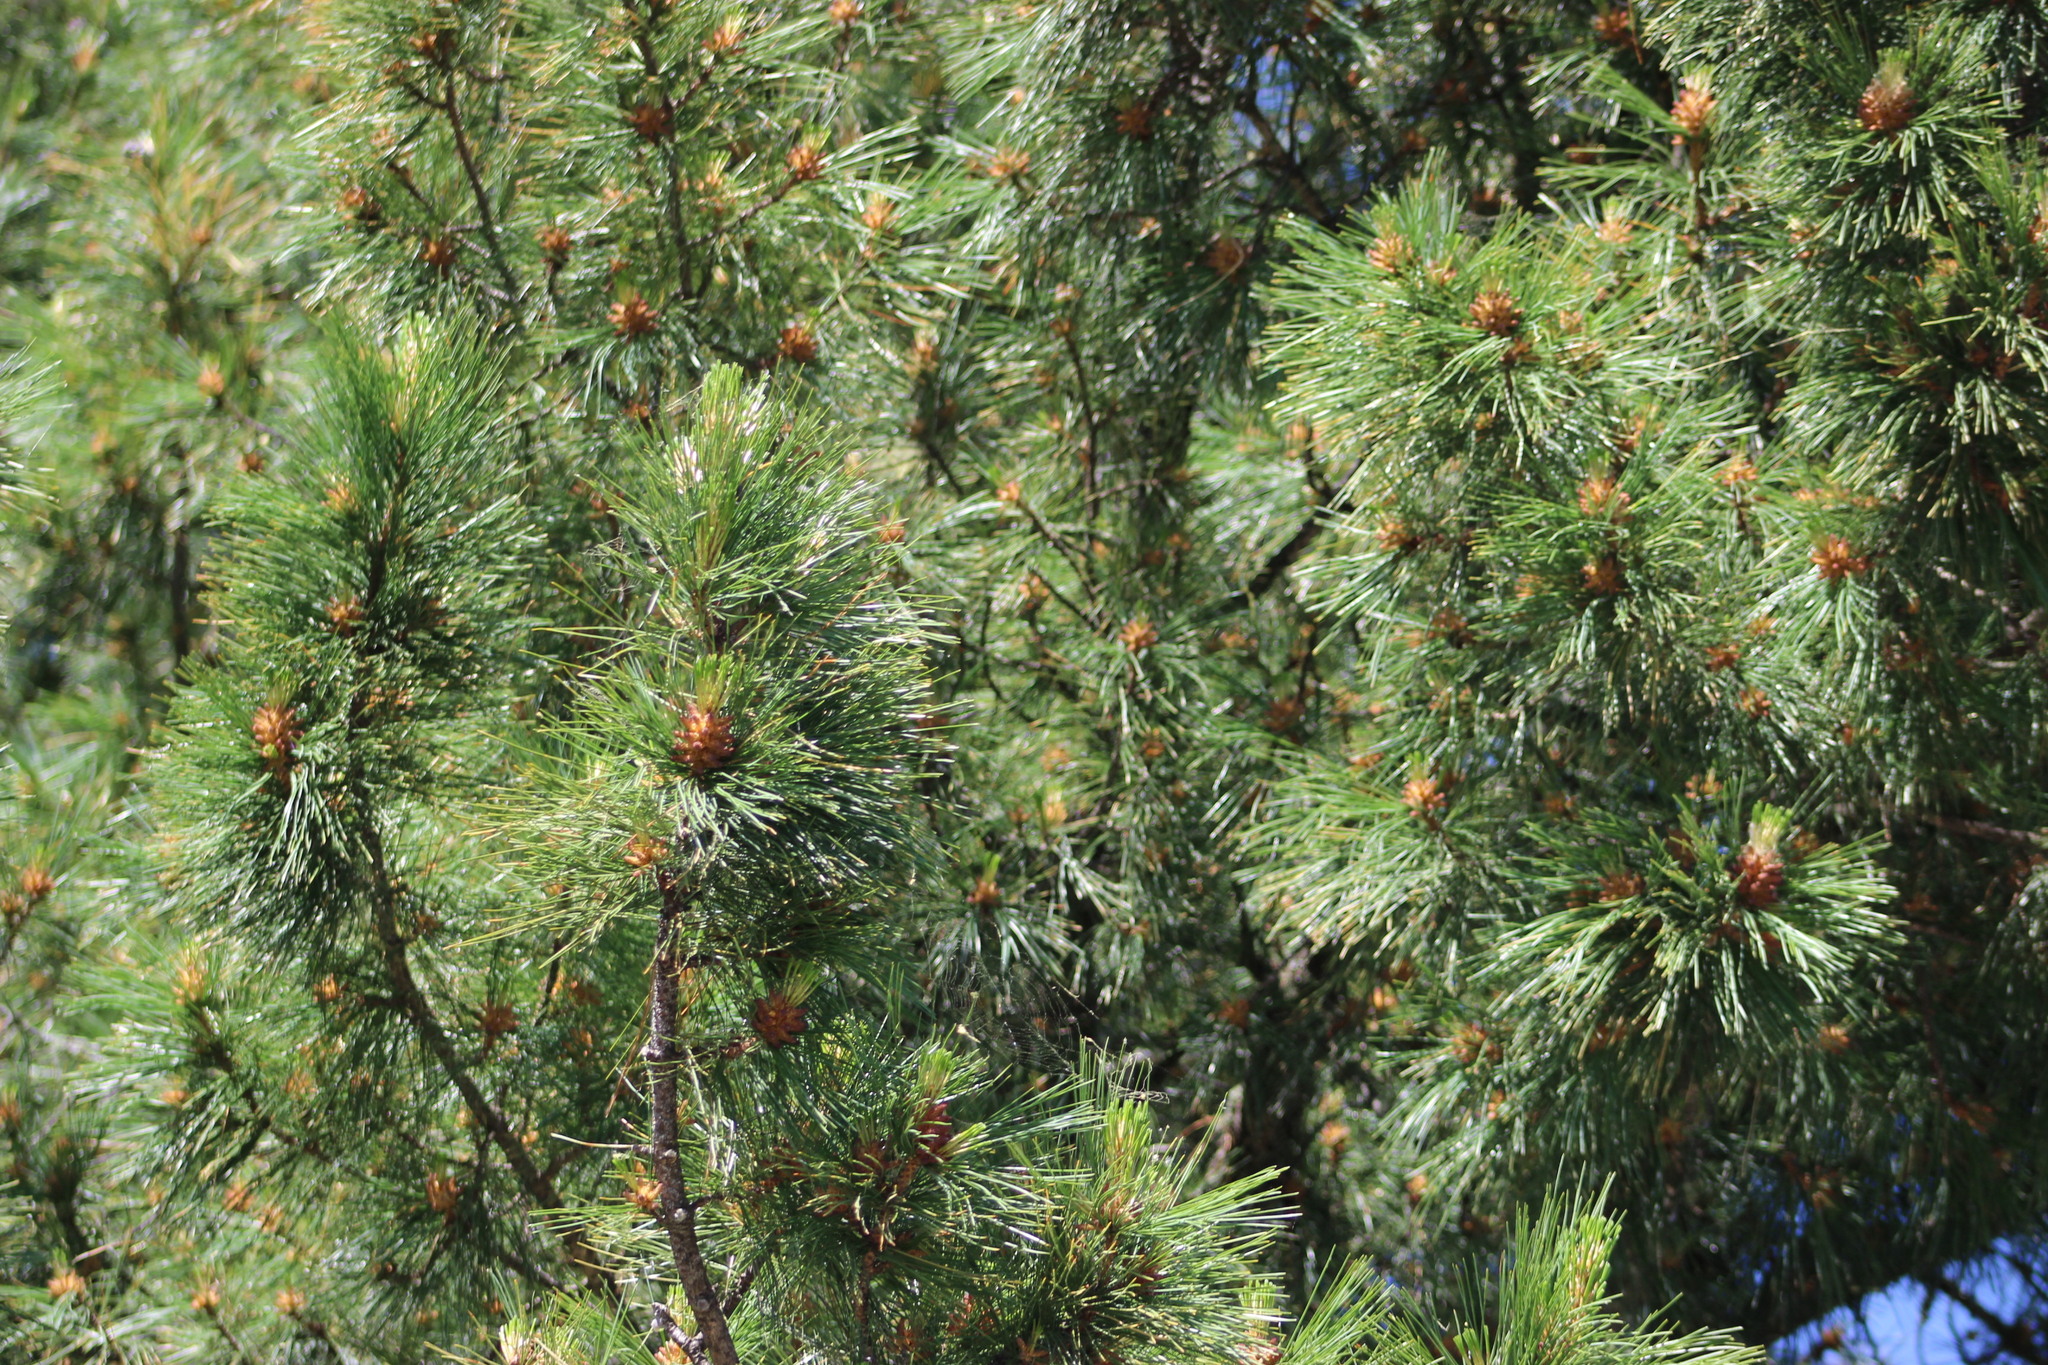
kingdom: Plantae
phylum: Tracheophyta
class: Pinopsida
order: Pinales
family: Pinaceae
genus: Pinus
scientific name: Pinus sibirica
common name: Siberian pine
